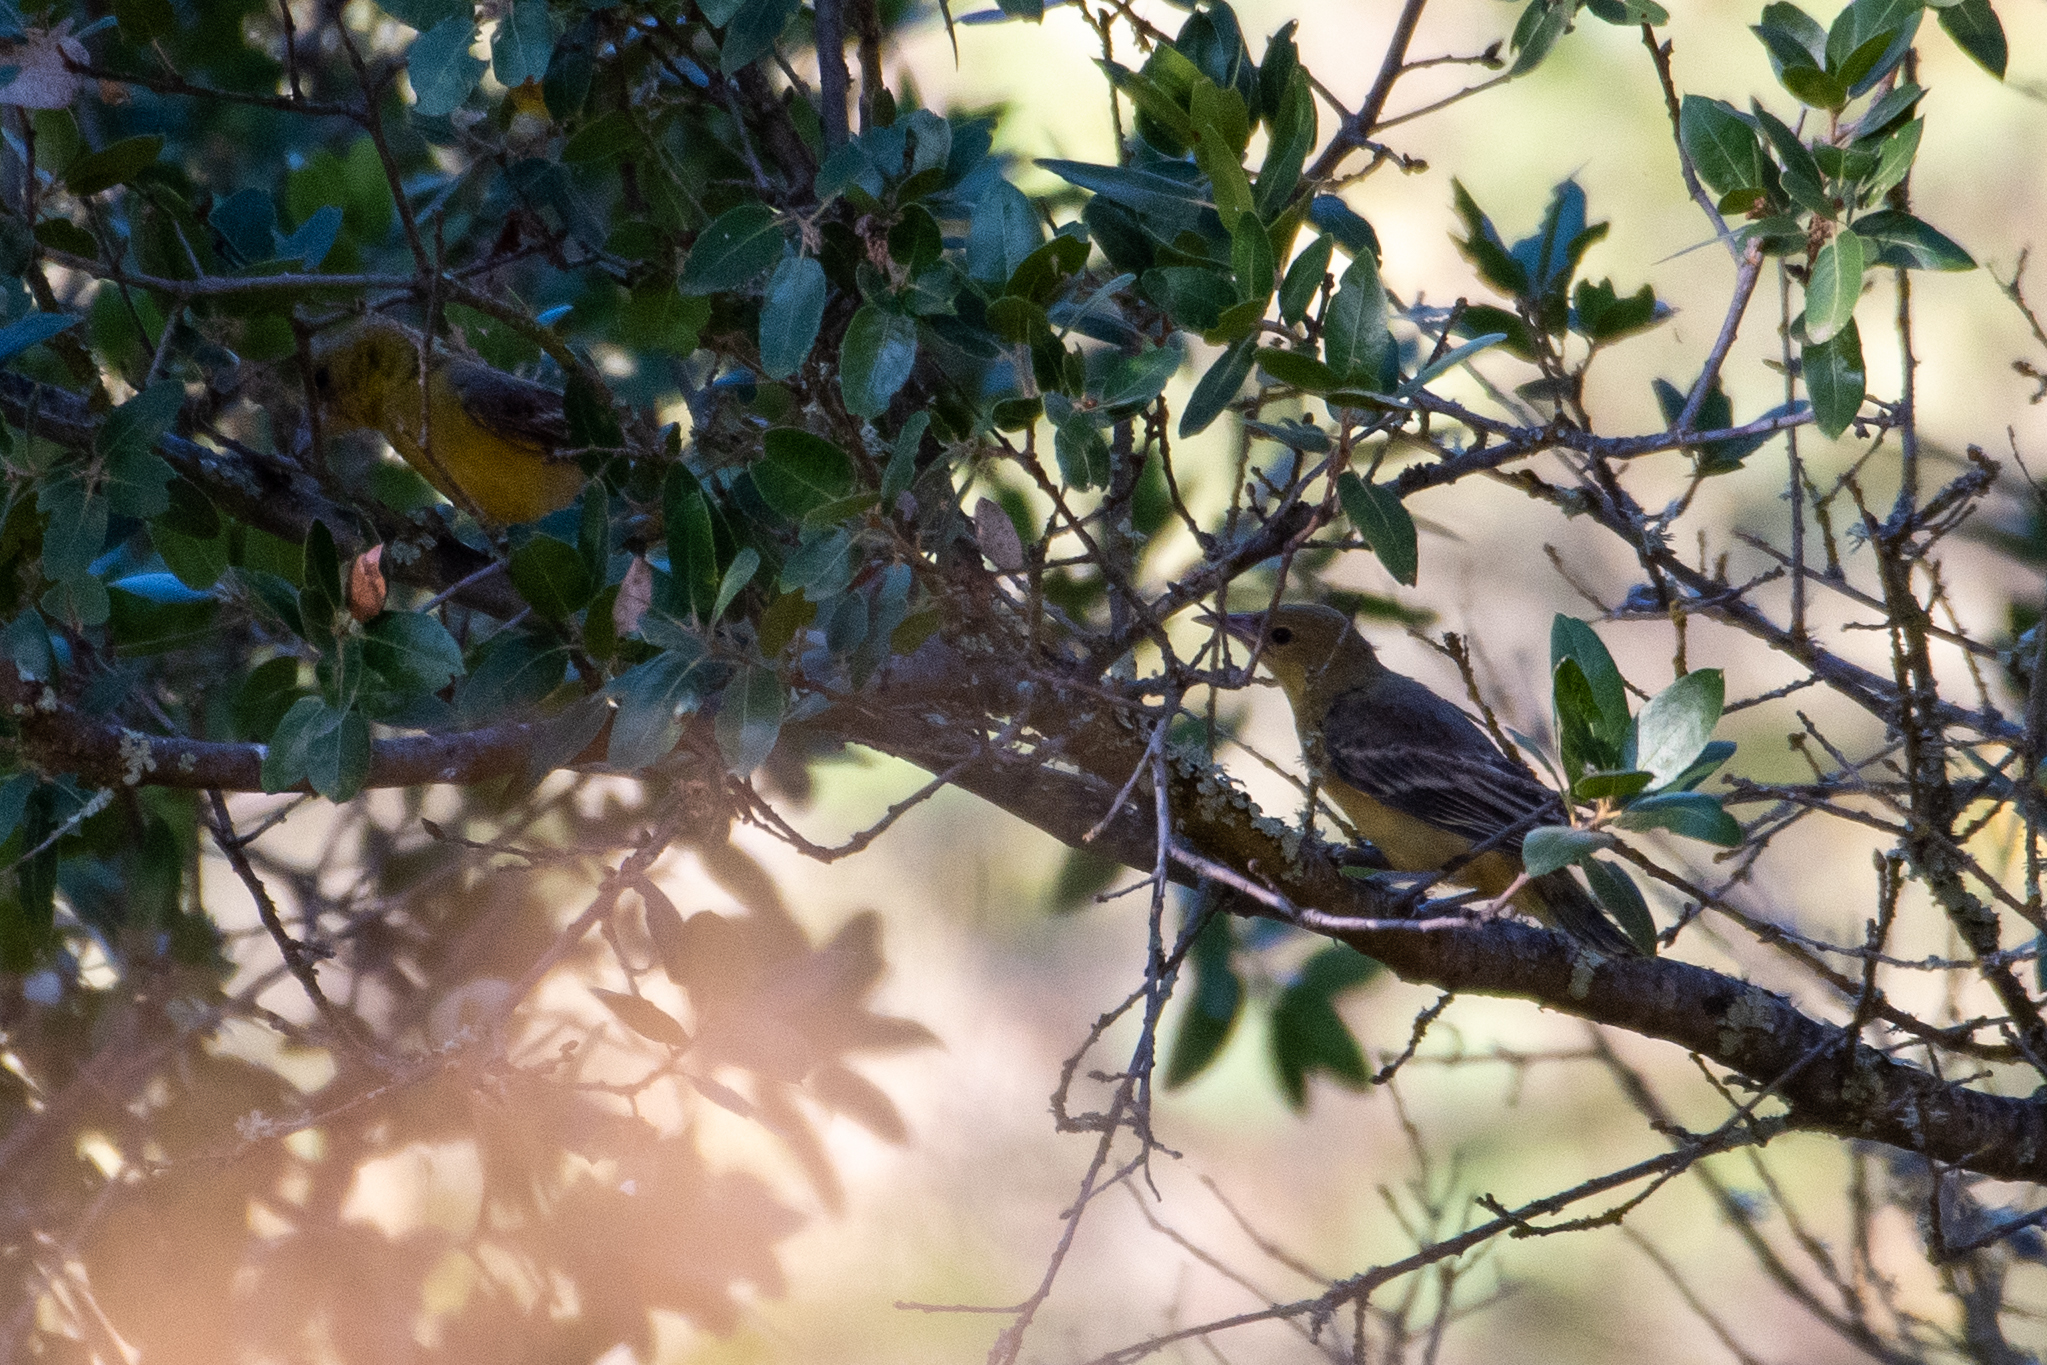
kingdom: Animalia
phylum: Chordata
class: Aves
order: Passeriformes
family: Icteridae
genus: Icterus
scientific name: Icterus cucullatus
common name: Hooded oriole
